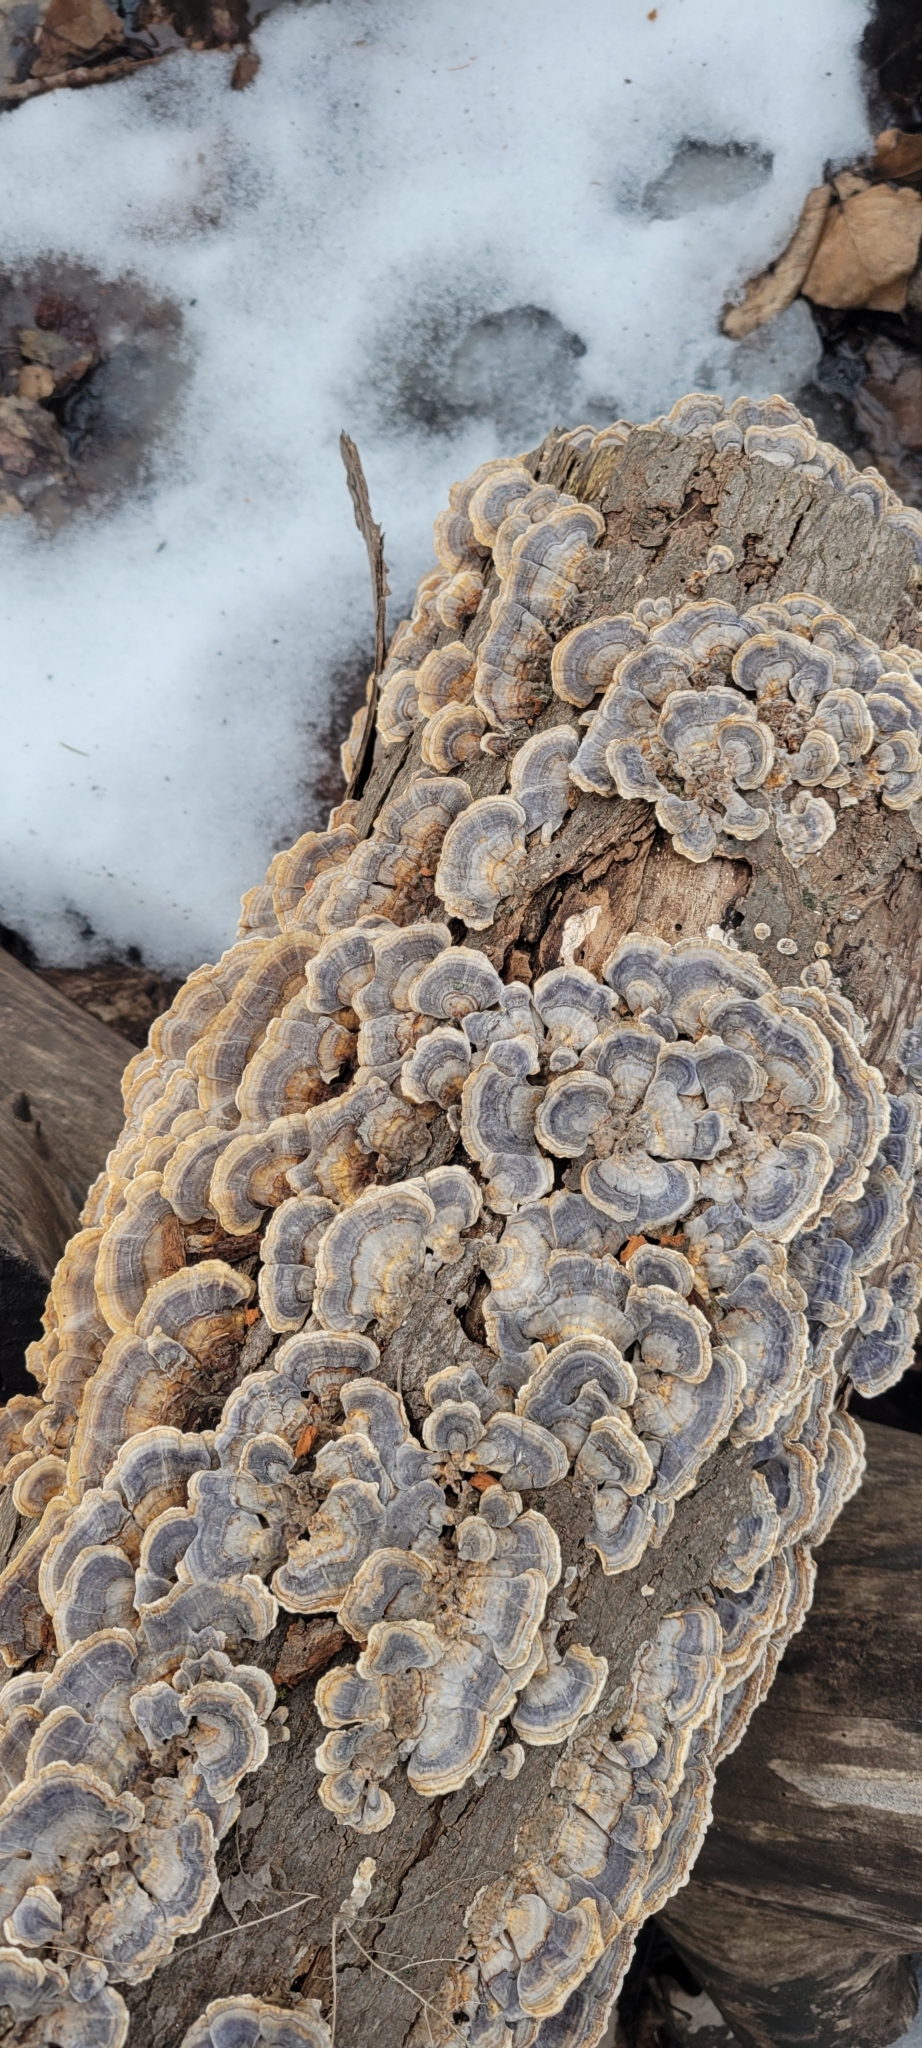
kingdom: Fungi
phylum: Basidiomycota
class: Agaricomycetes
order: Polyporales
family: Polyporaceae
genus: Trametes
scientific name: Trametes versicolor
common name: Turkeytail
